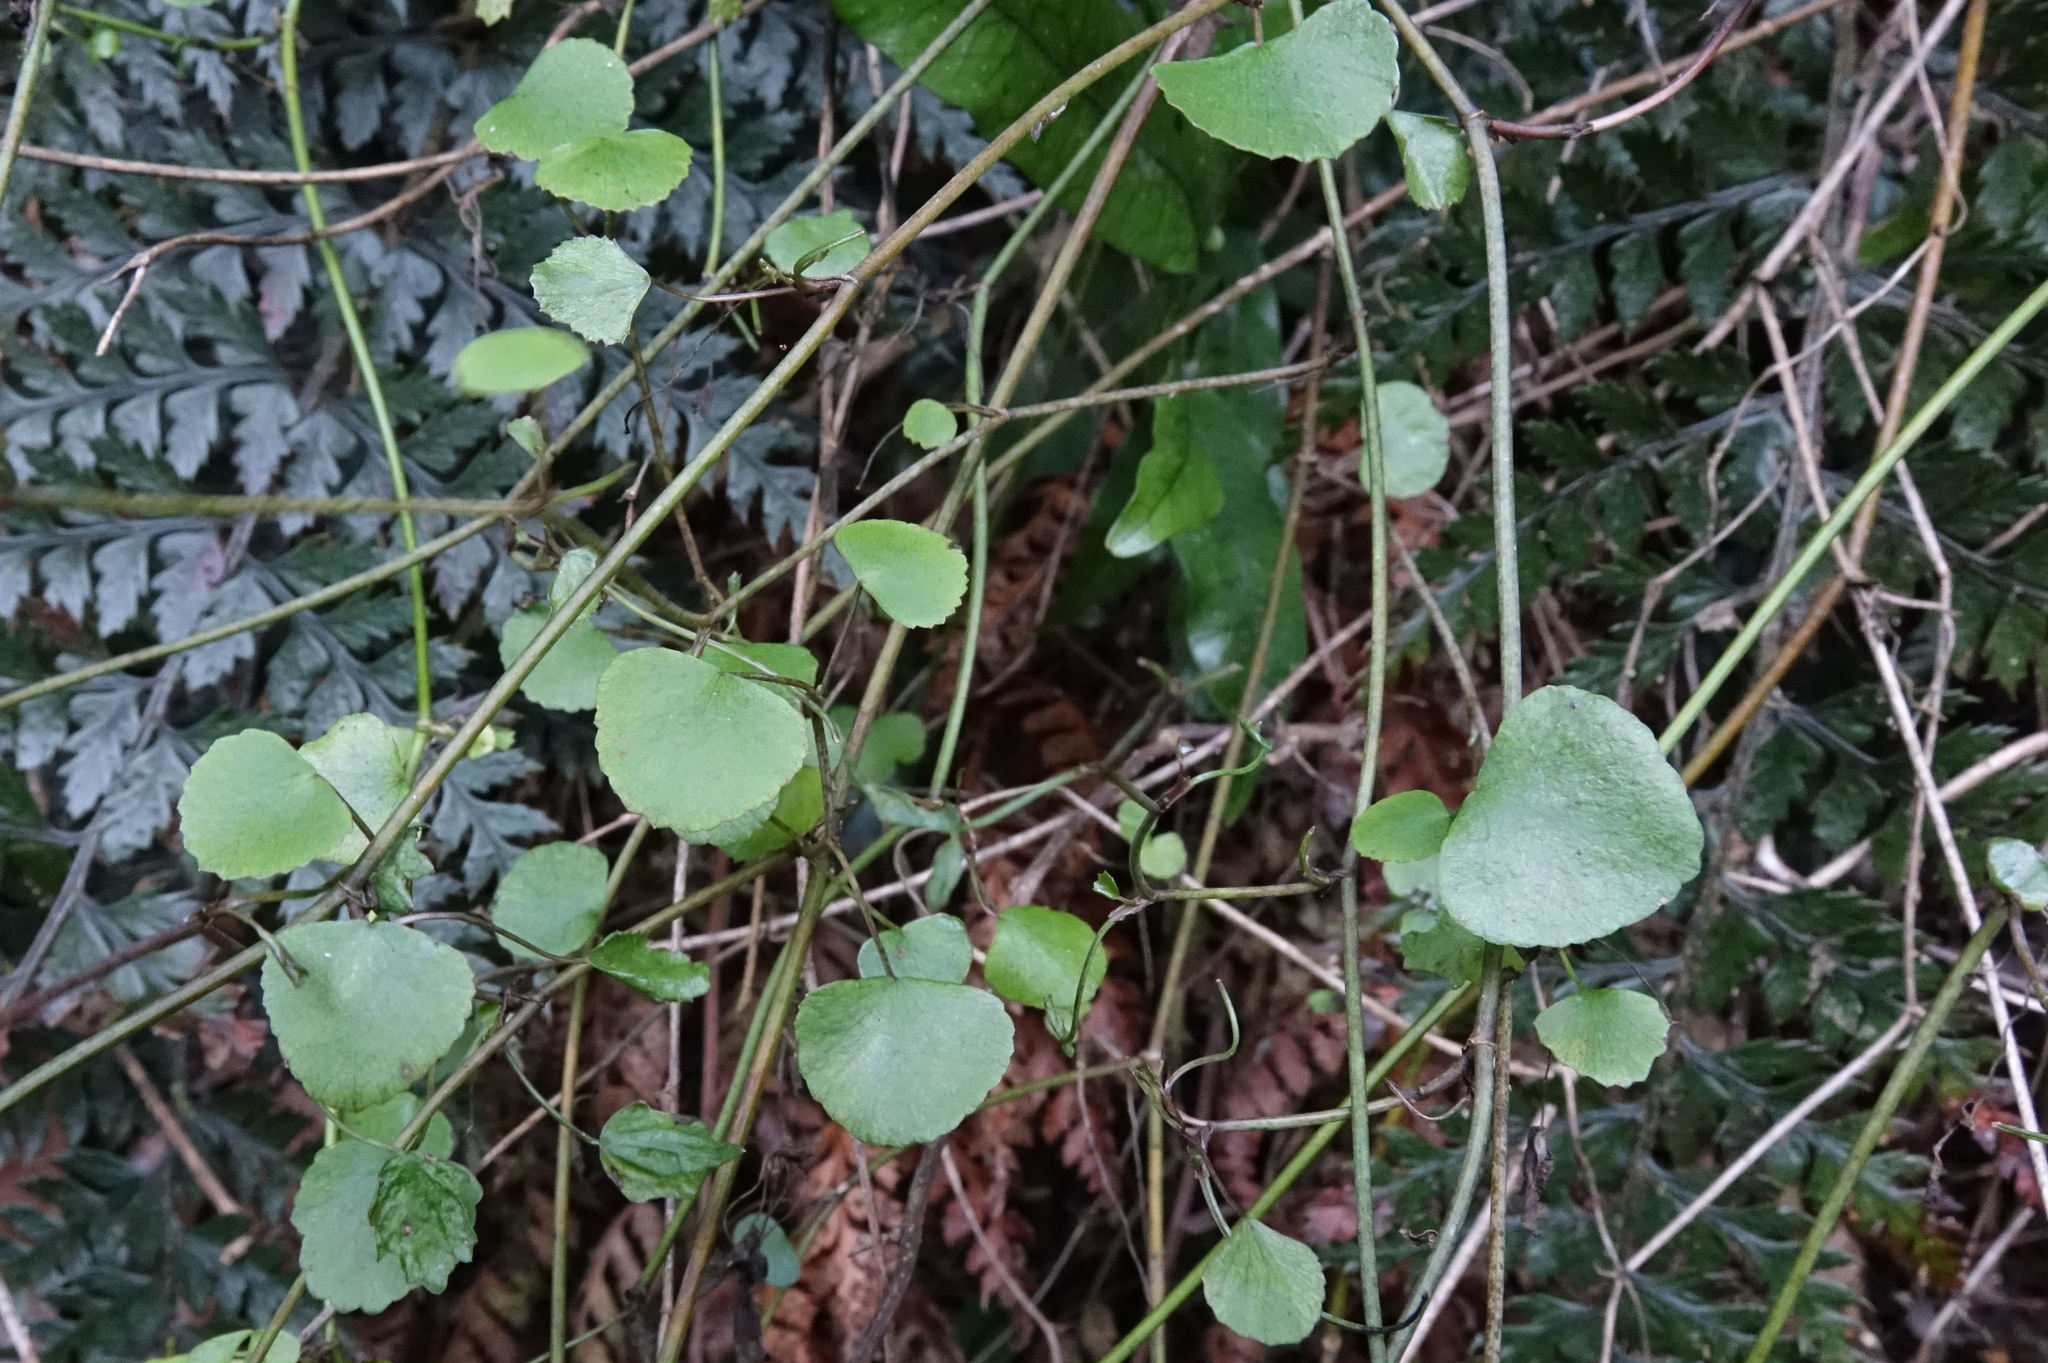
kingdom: Plantae
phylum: Tracheophyta
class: Magnoliopsida
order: Apiales
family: Apiaceae
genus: Scandia
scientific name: Scandia geniculata
